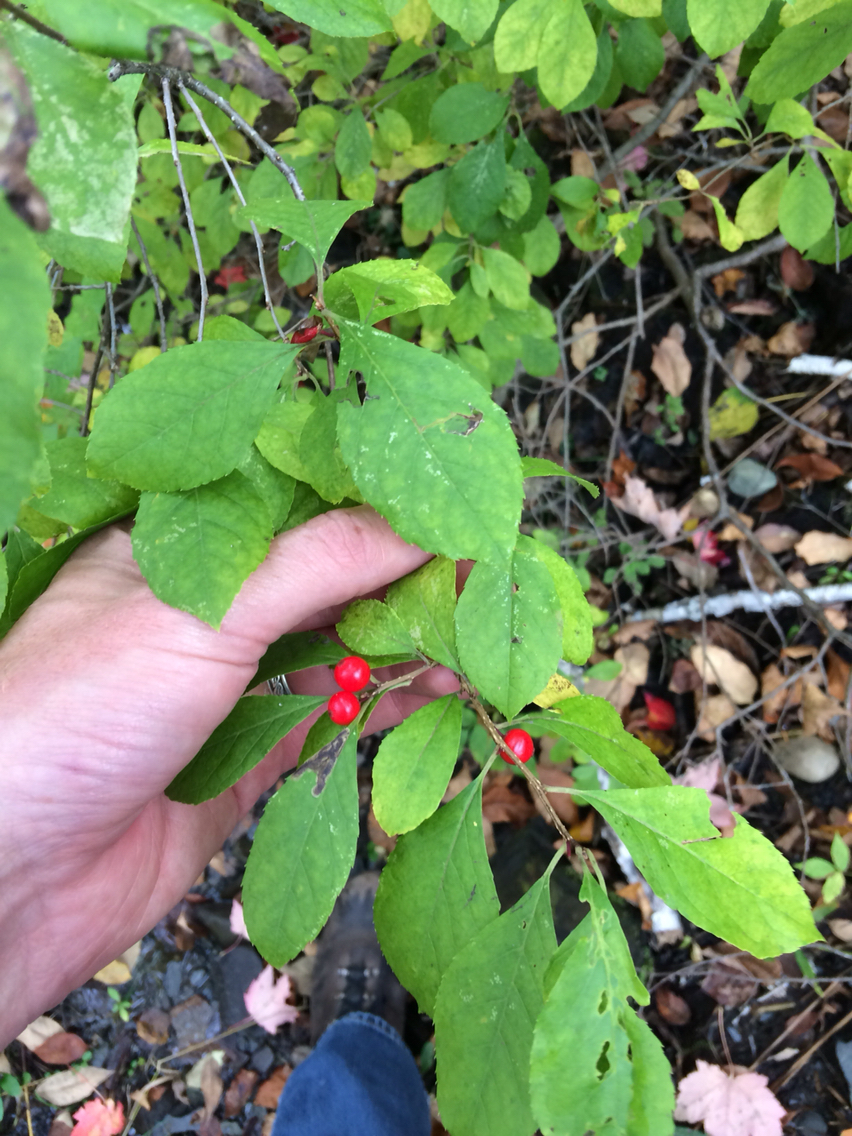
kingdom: Plantae
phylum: Tracheophyta
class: Magnoliopsida
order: Aquifoliales
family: Aquifoliaceae
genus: Ilex
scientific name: Ilex verticillata
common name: Virginia winterberry
